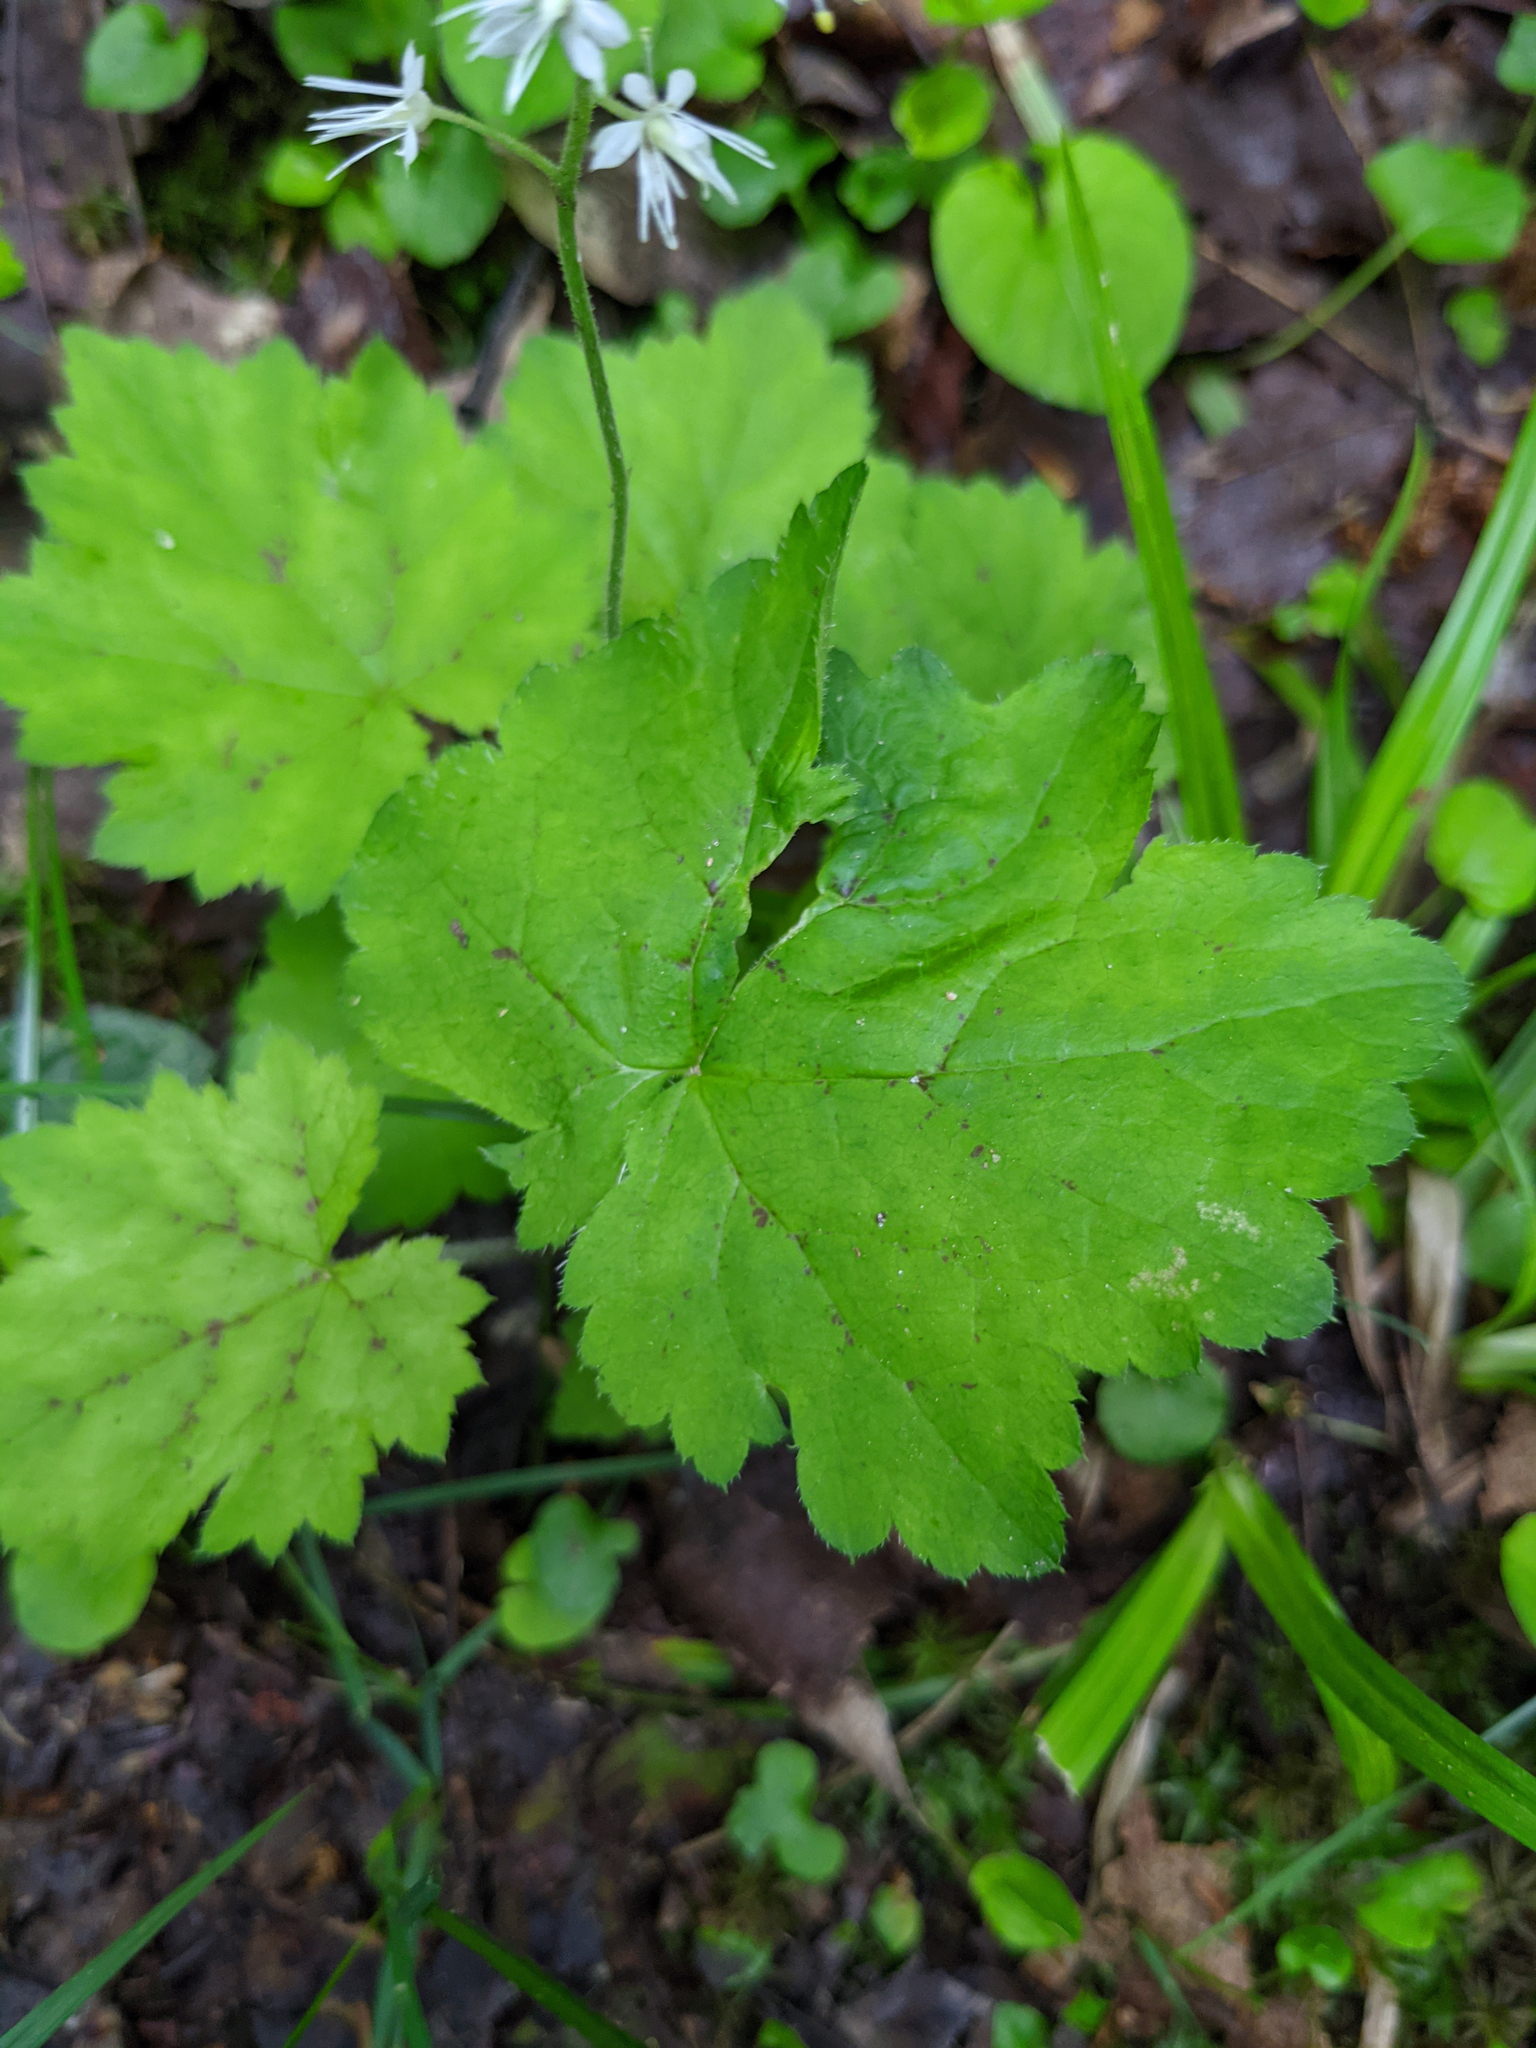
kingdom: Plantae
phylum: Tracheophyta
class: Magnoliopsida
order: Saxifragales
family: Saxifragaceae
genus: Tiarella
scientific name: Tiarella stolonifera
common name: Stoloniferous foamflower
